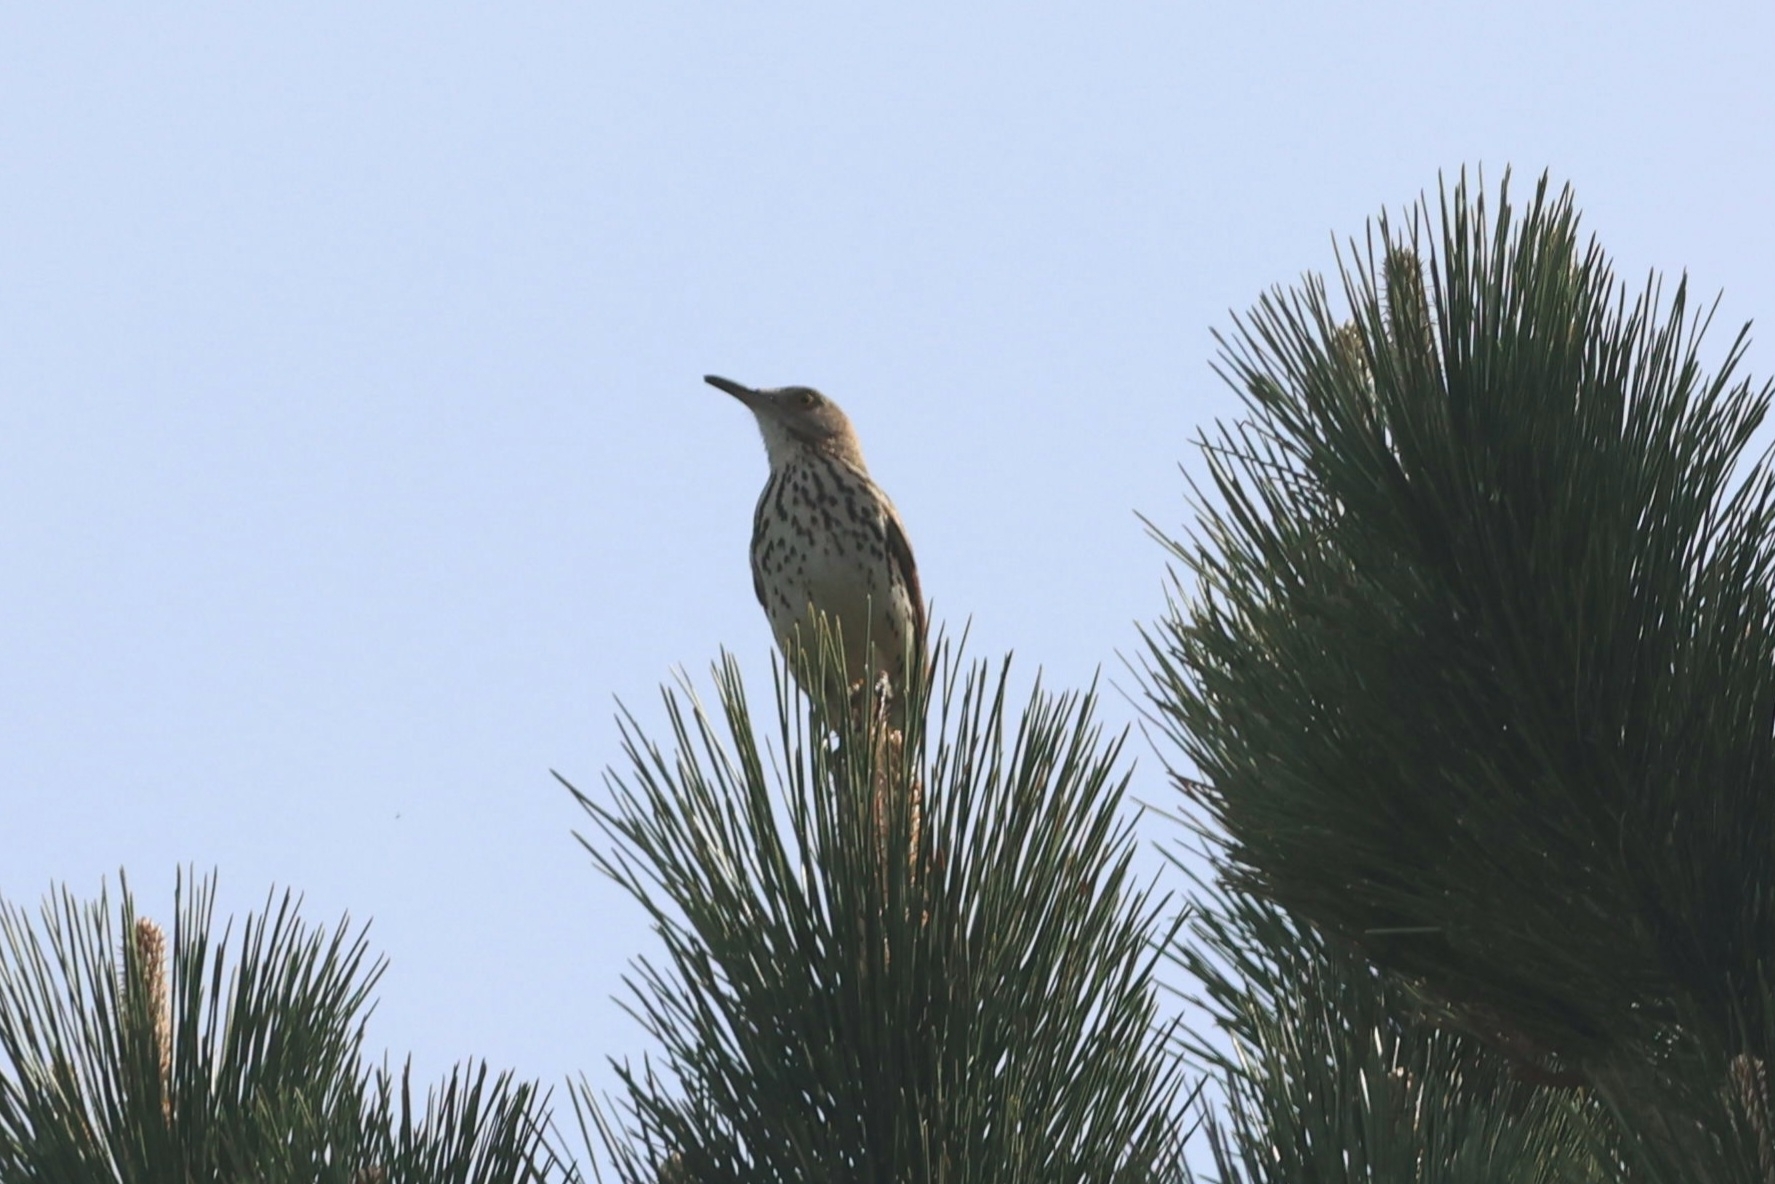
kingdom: Animalia
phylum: Chordata
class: Aves
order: Passeriformes
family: Mimidae
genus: Toxostoma
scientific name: Toxostoma rufum
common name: Brown thrasher
